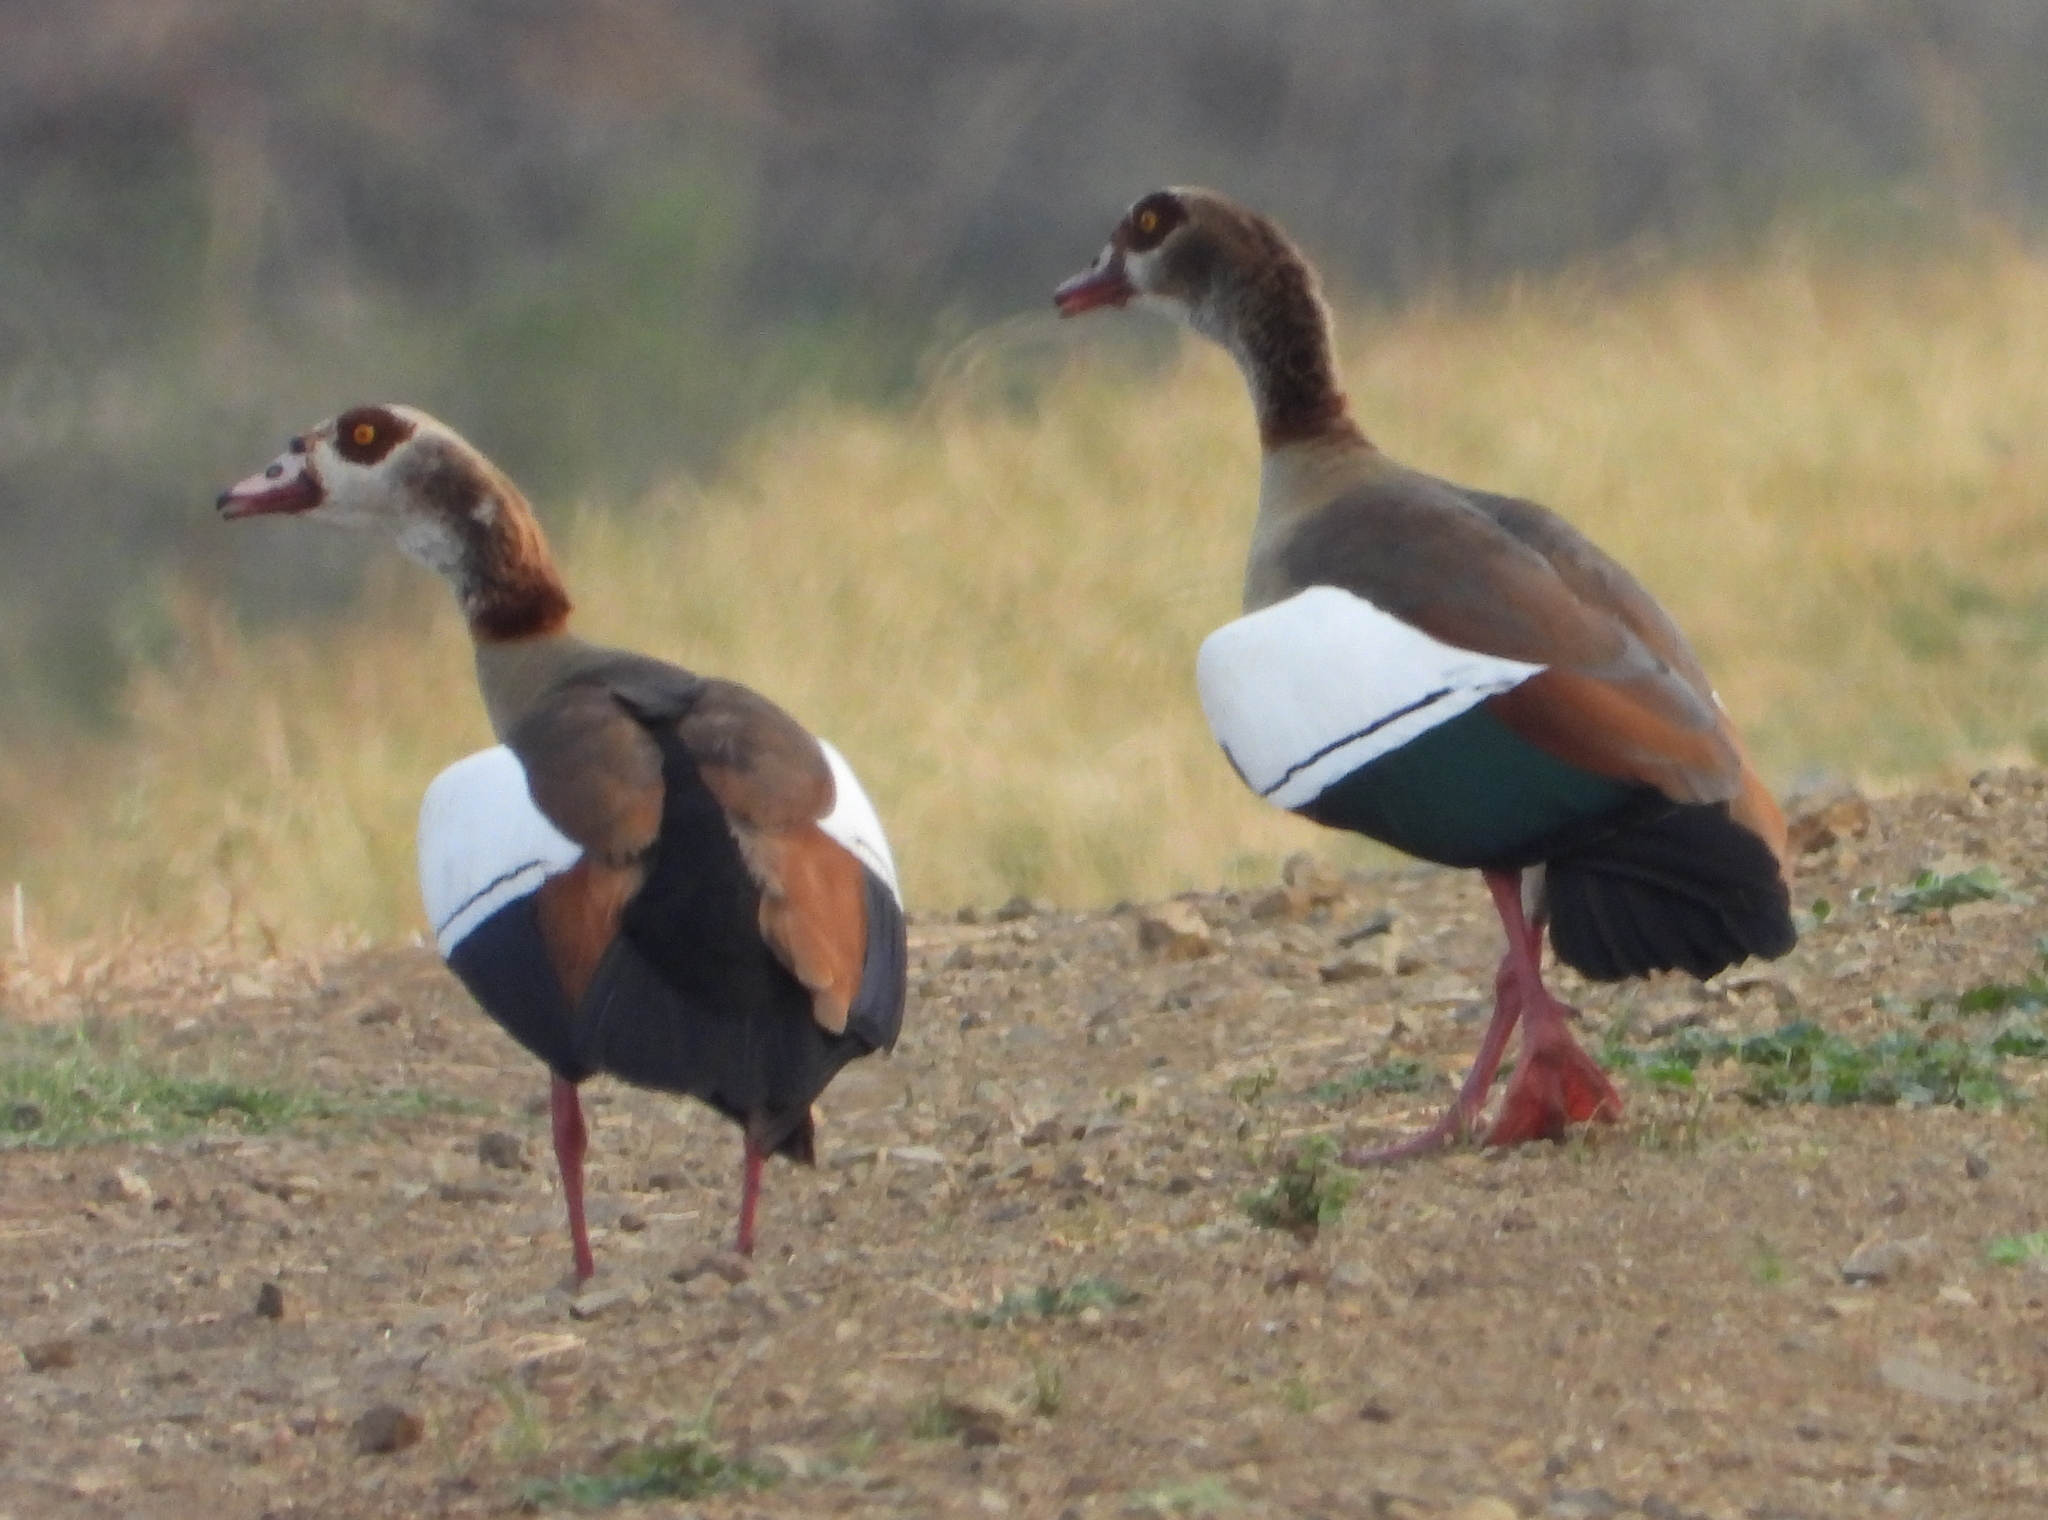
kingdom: Animalia
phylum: Chordata
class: Aves
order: Anseriformes
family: Anatidae
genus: Alopochen
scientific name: Alopochen aegyptiaca
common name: Egyptian goose
